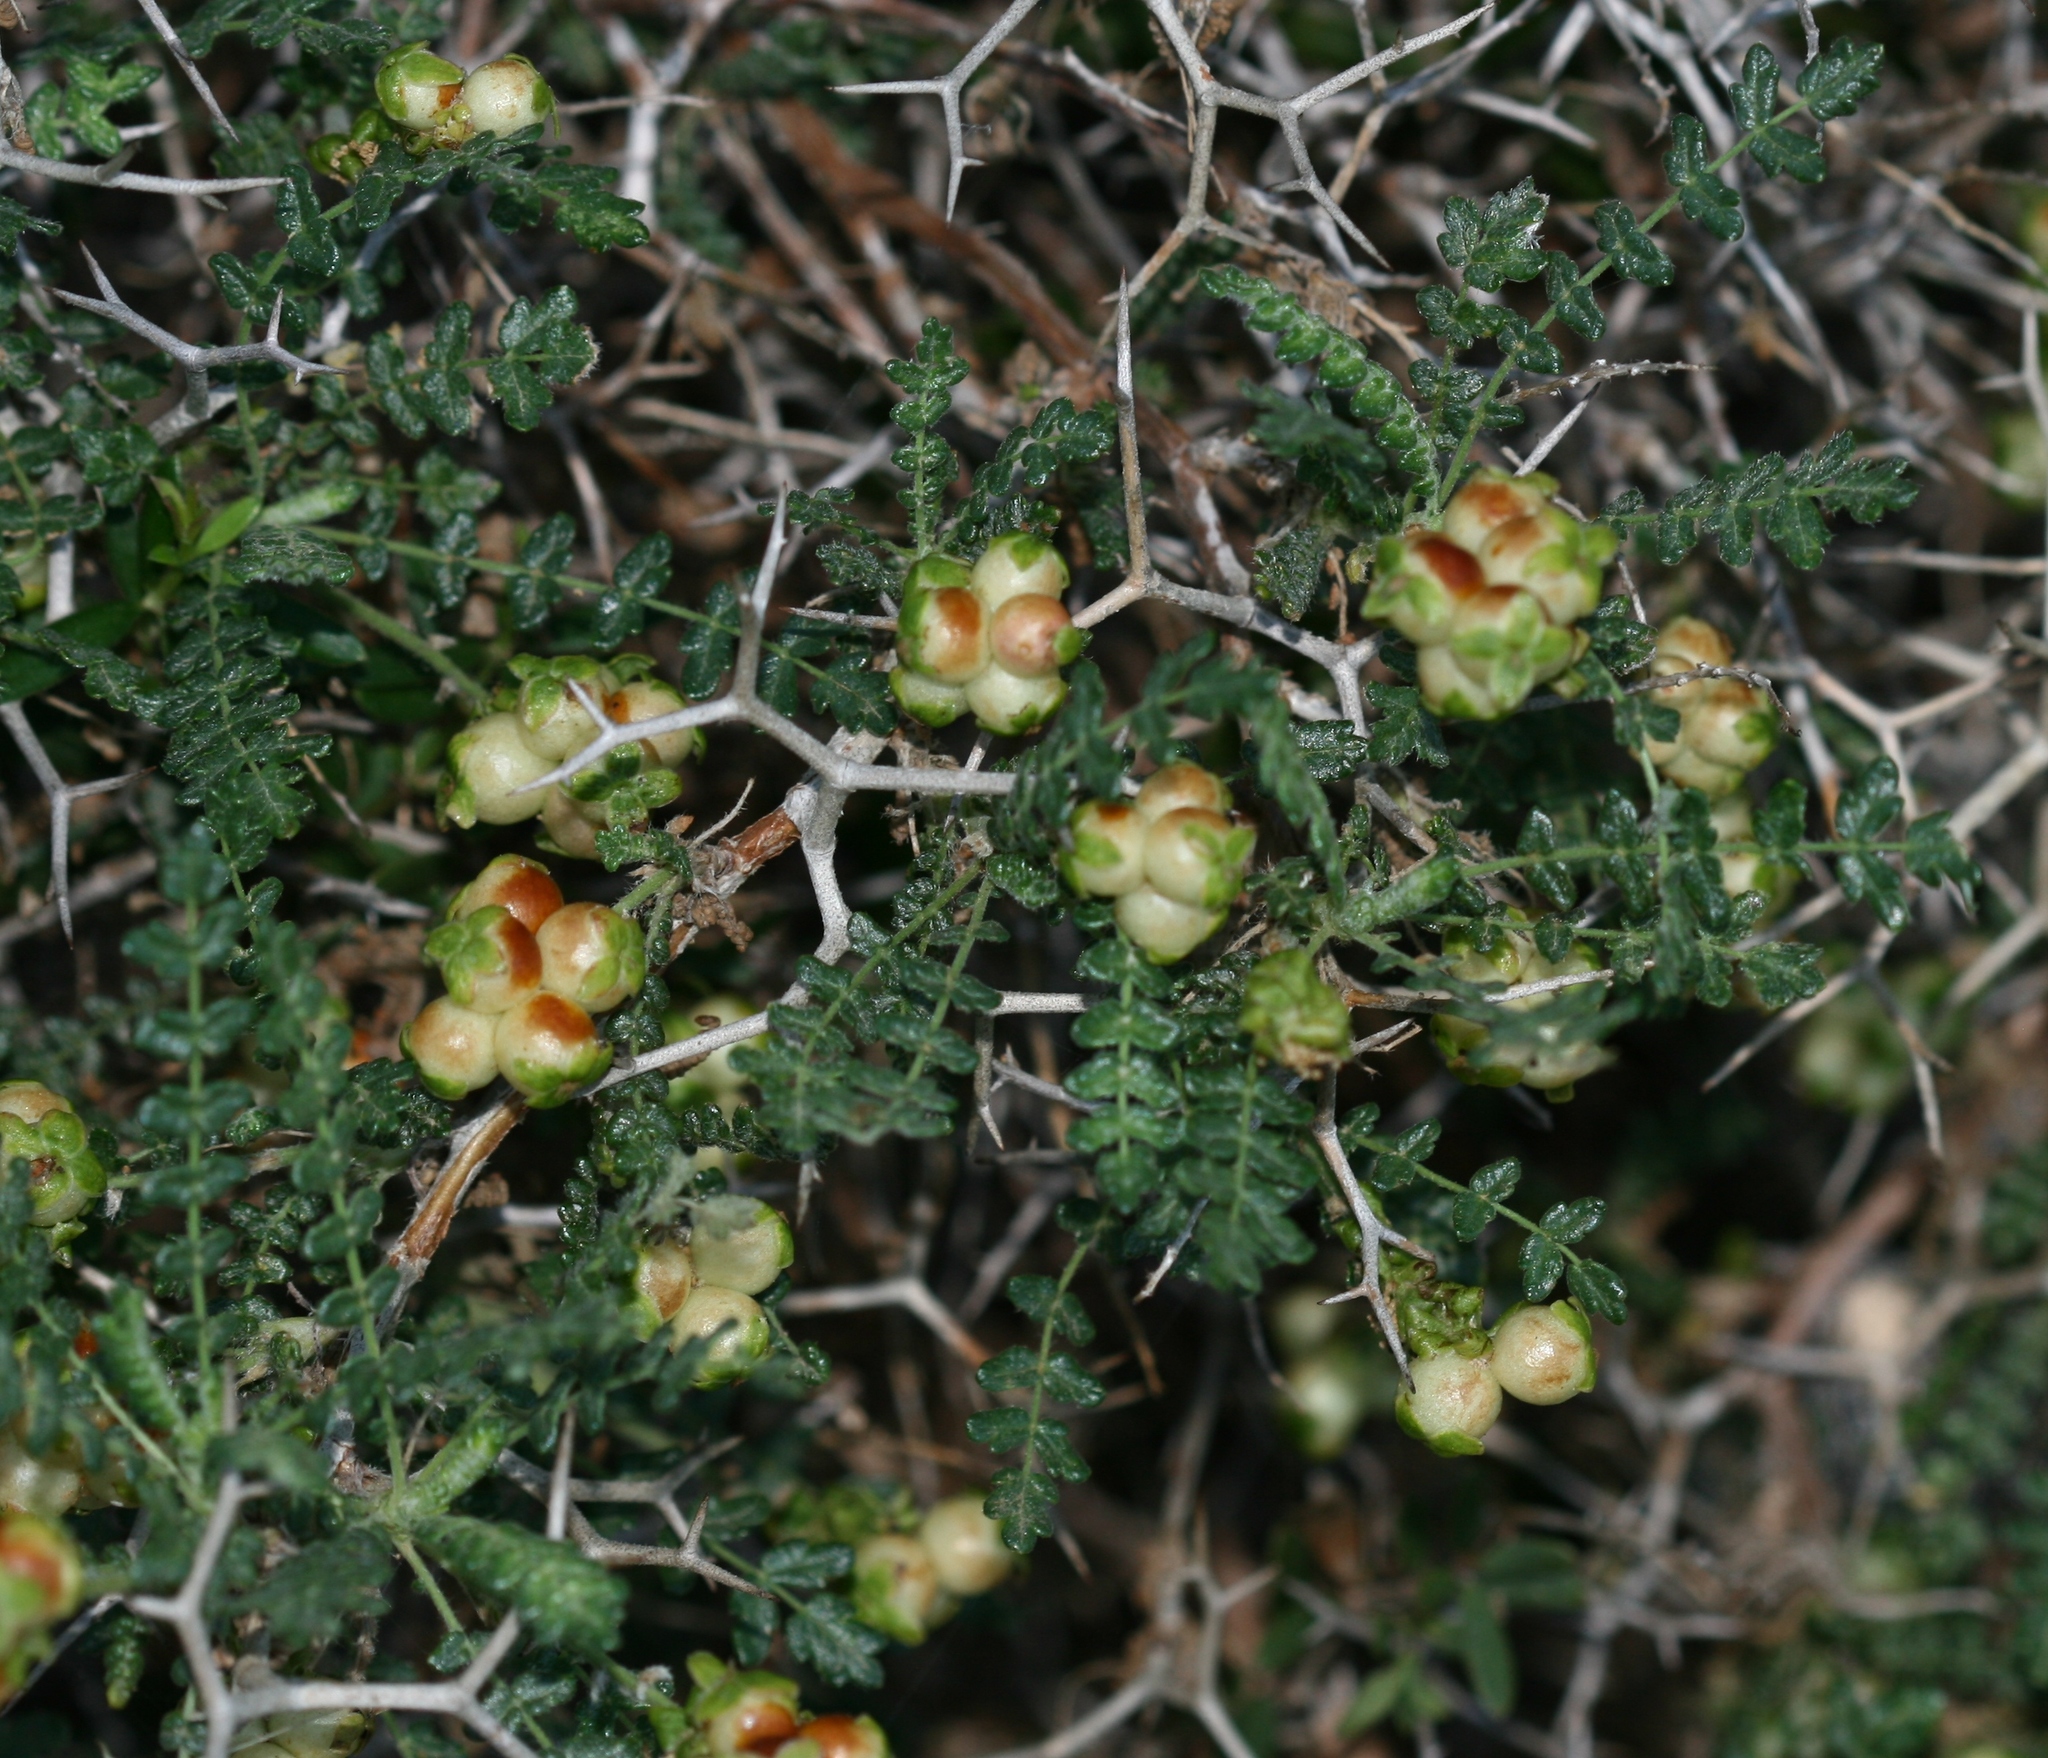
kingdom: Plantae
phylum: Tracheophyta
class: Magnoliopsida
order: Rosales
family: Rosaceae
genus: Sarcopoterium
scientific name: Sarcopoterium spinosum
